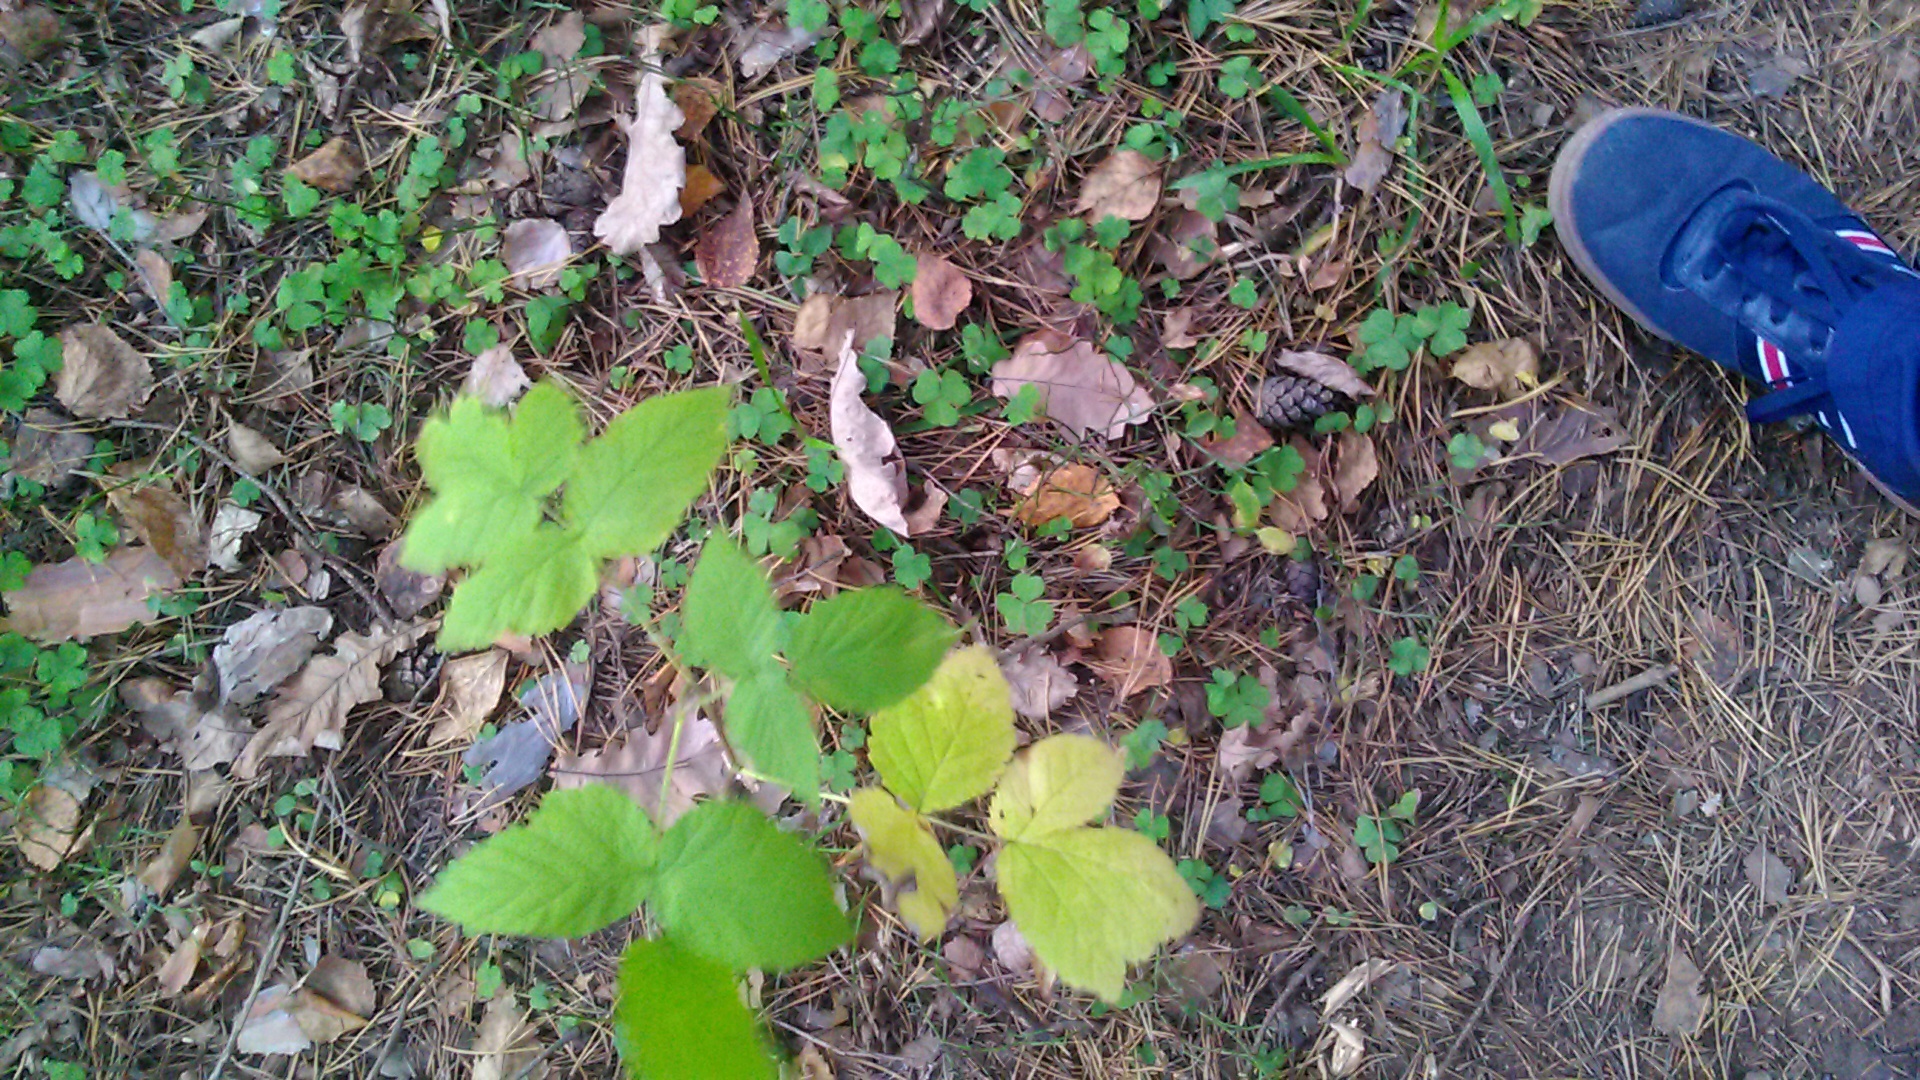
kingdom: Plantae
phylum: Tracheophyta
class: Magnoliopsida
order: Rosales
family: Rosaceae
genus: Rubus
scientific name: Rubus idaeus
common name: Raspberry
